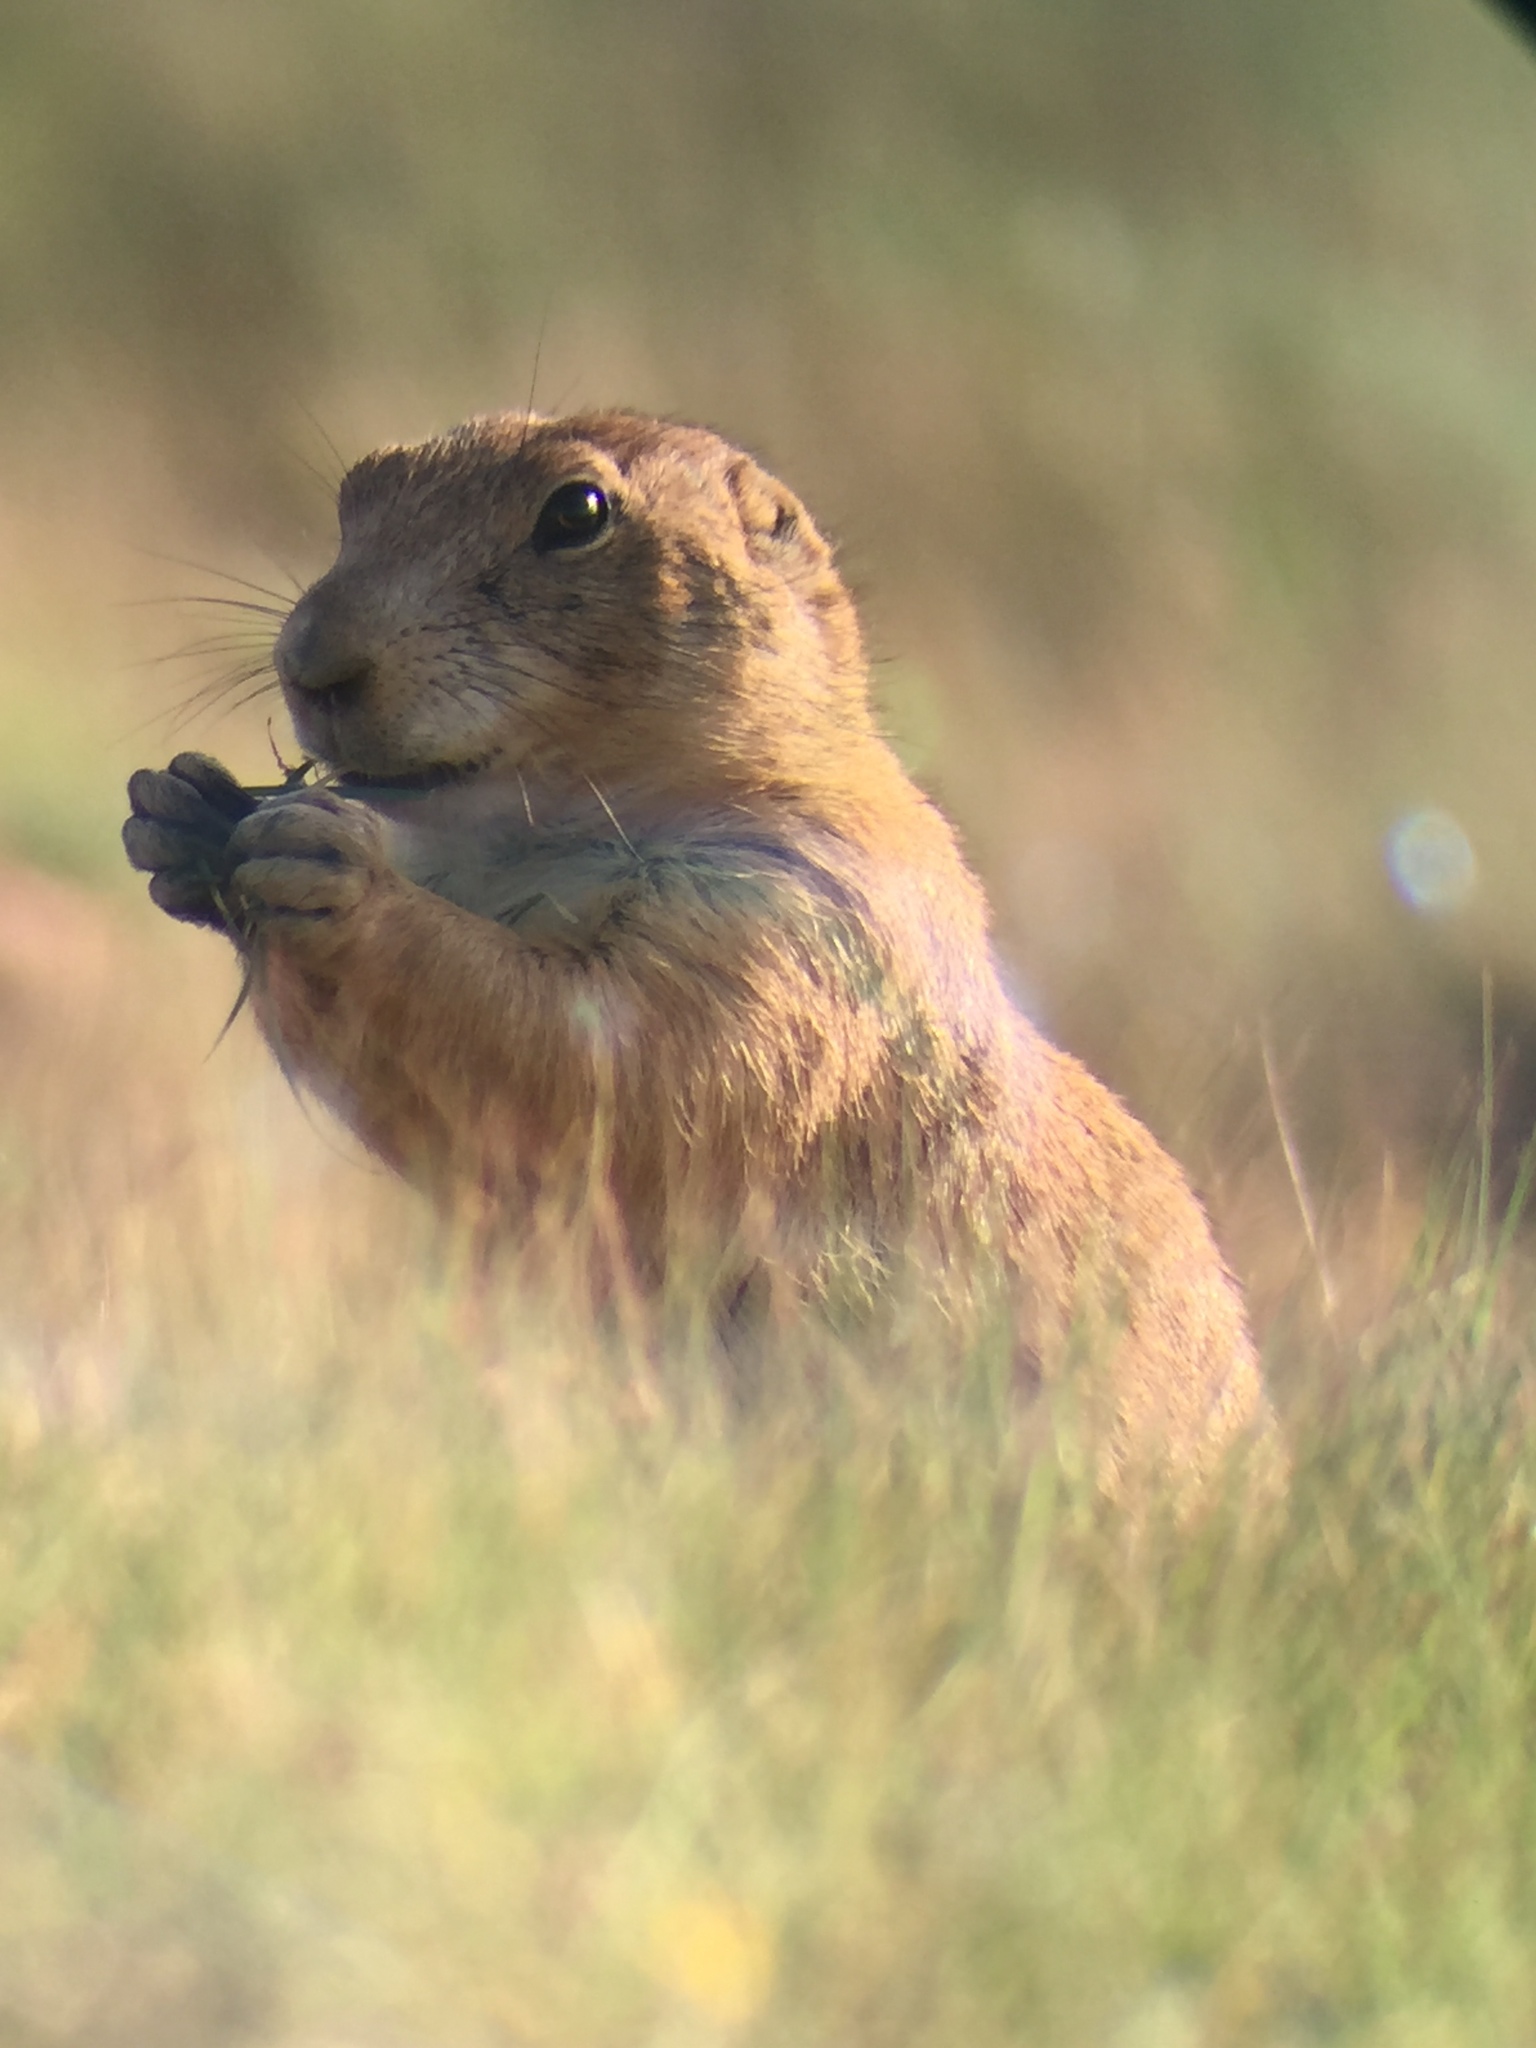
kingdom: Animalia
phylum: Chordata
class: Mammalia
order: Rodentia
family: Sciuridae
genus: Cynomys
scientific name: Cynomys ludovicianus
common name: Black-tailed prairie dog
